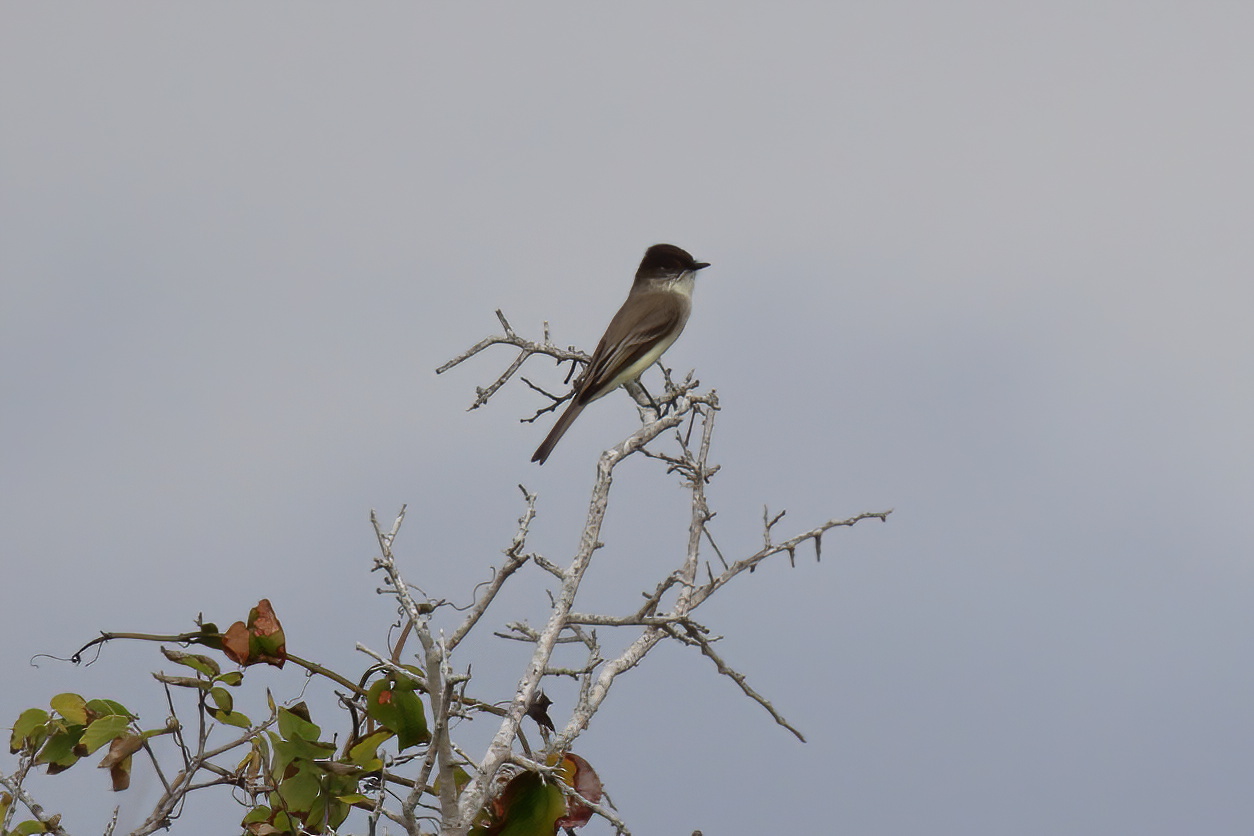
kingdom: Animalia
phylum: Chordata
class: Aves
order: Passeriformes
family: Tyrannidae
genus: Sayornis
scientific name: Sayornis phoebe
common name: Eastern phoebe
